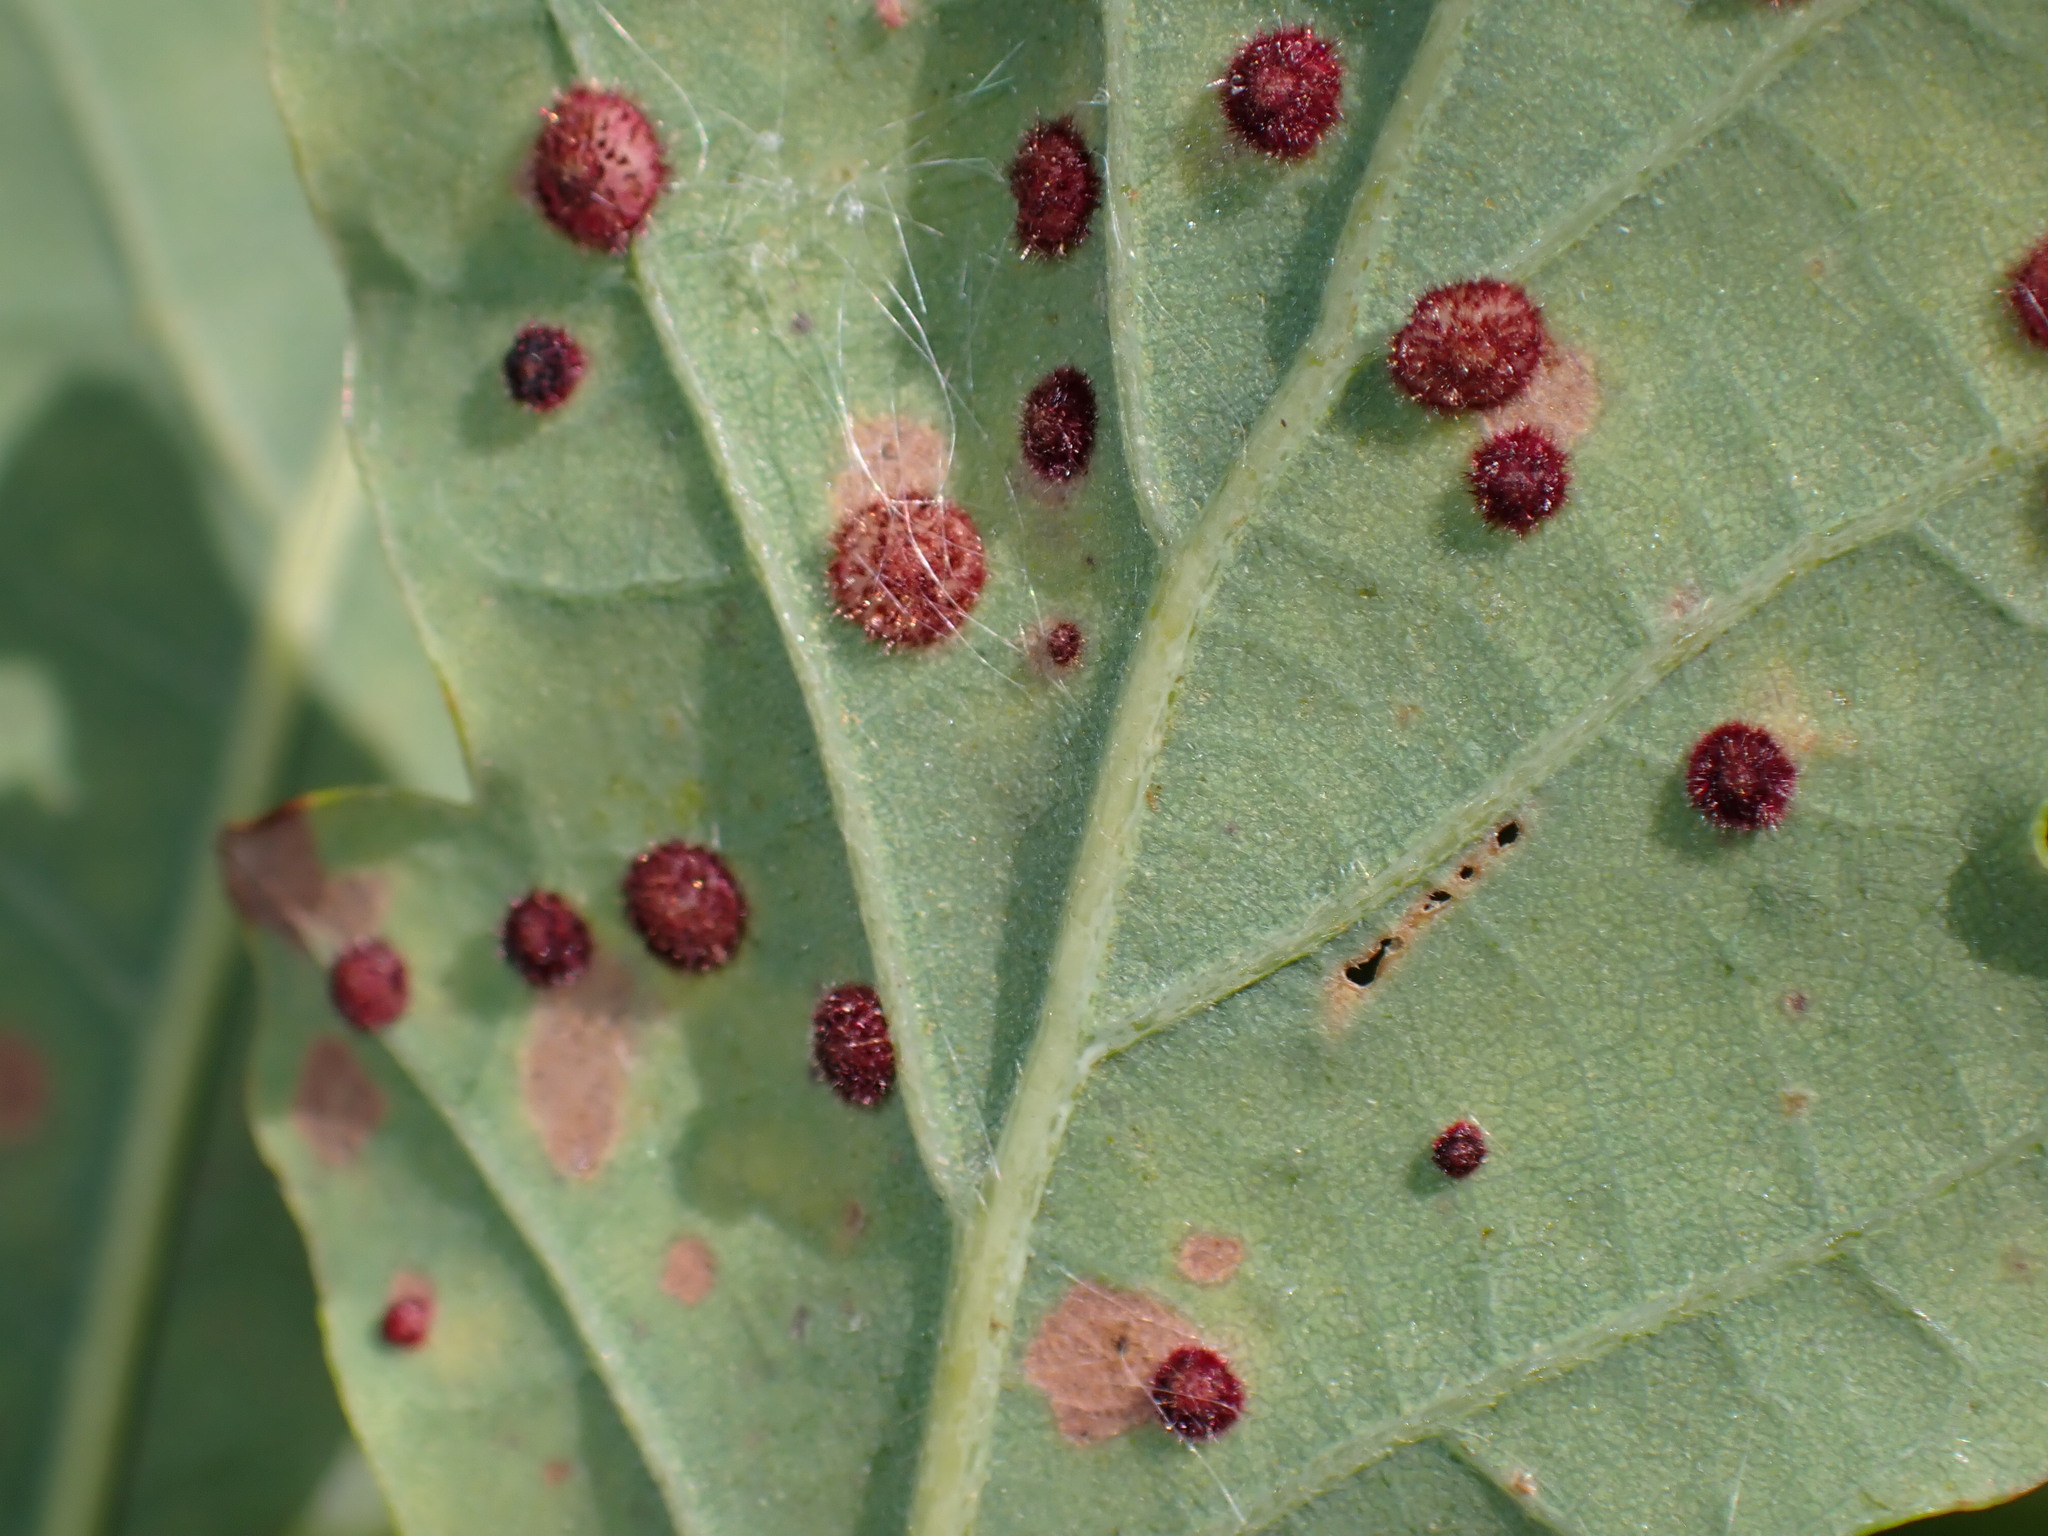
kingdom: Animalia
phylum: Arthropoda
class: Insecta
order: Hymenoptera
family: Cynipidae
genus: Neuroterus
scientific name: Neuroterus quercusbaccarum
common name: Common spangle gall
